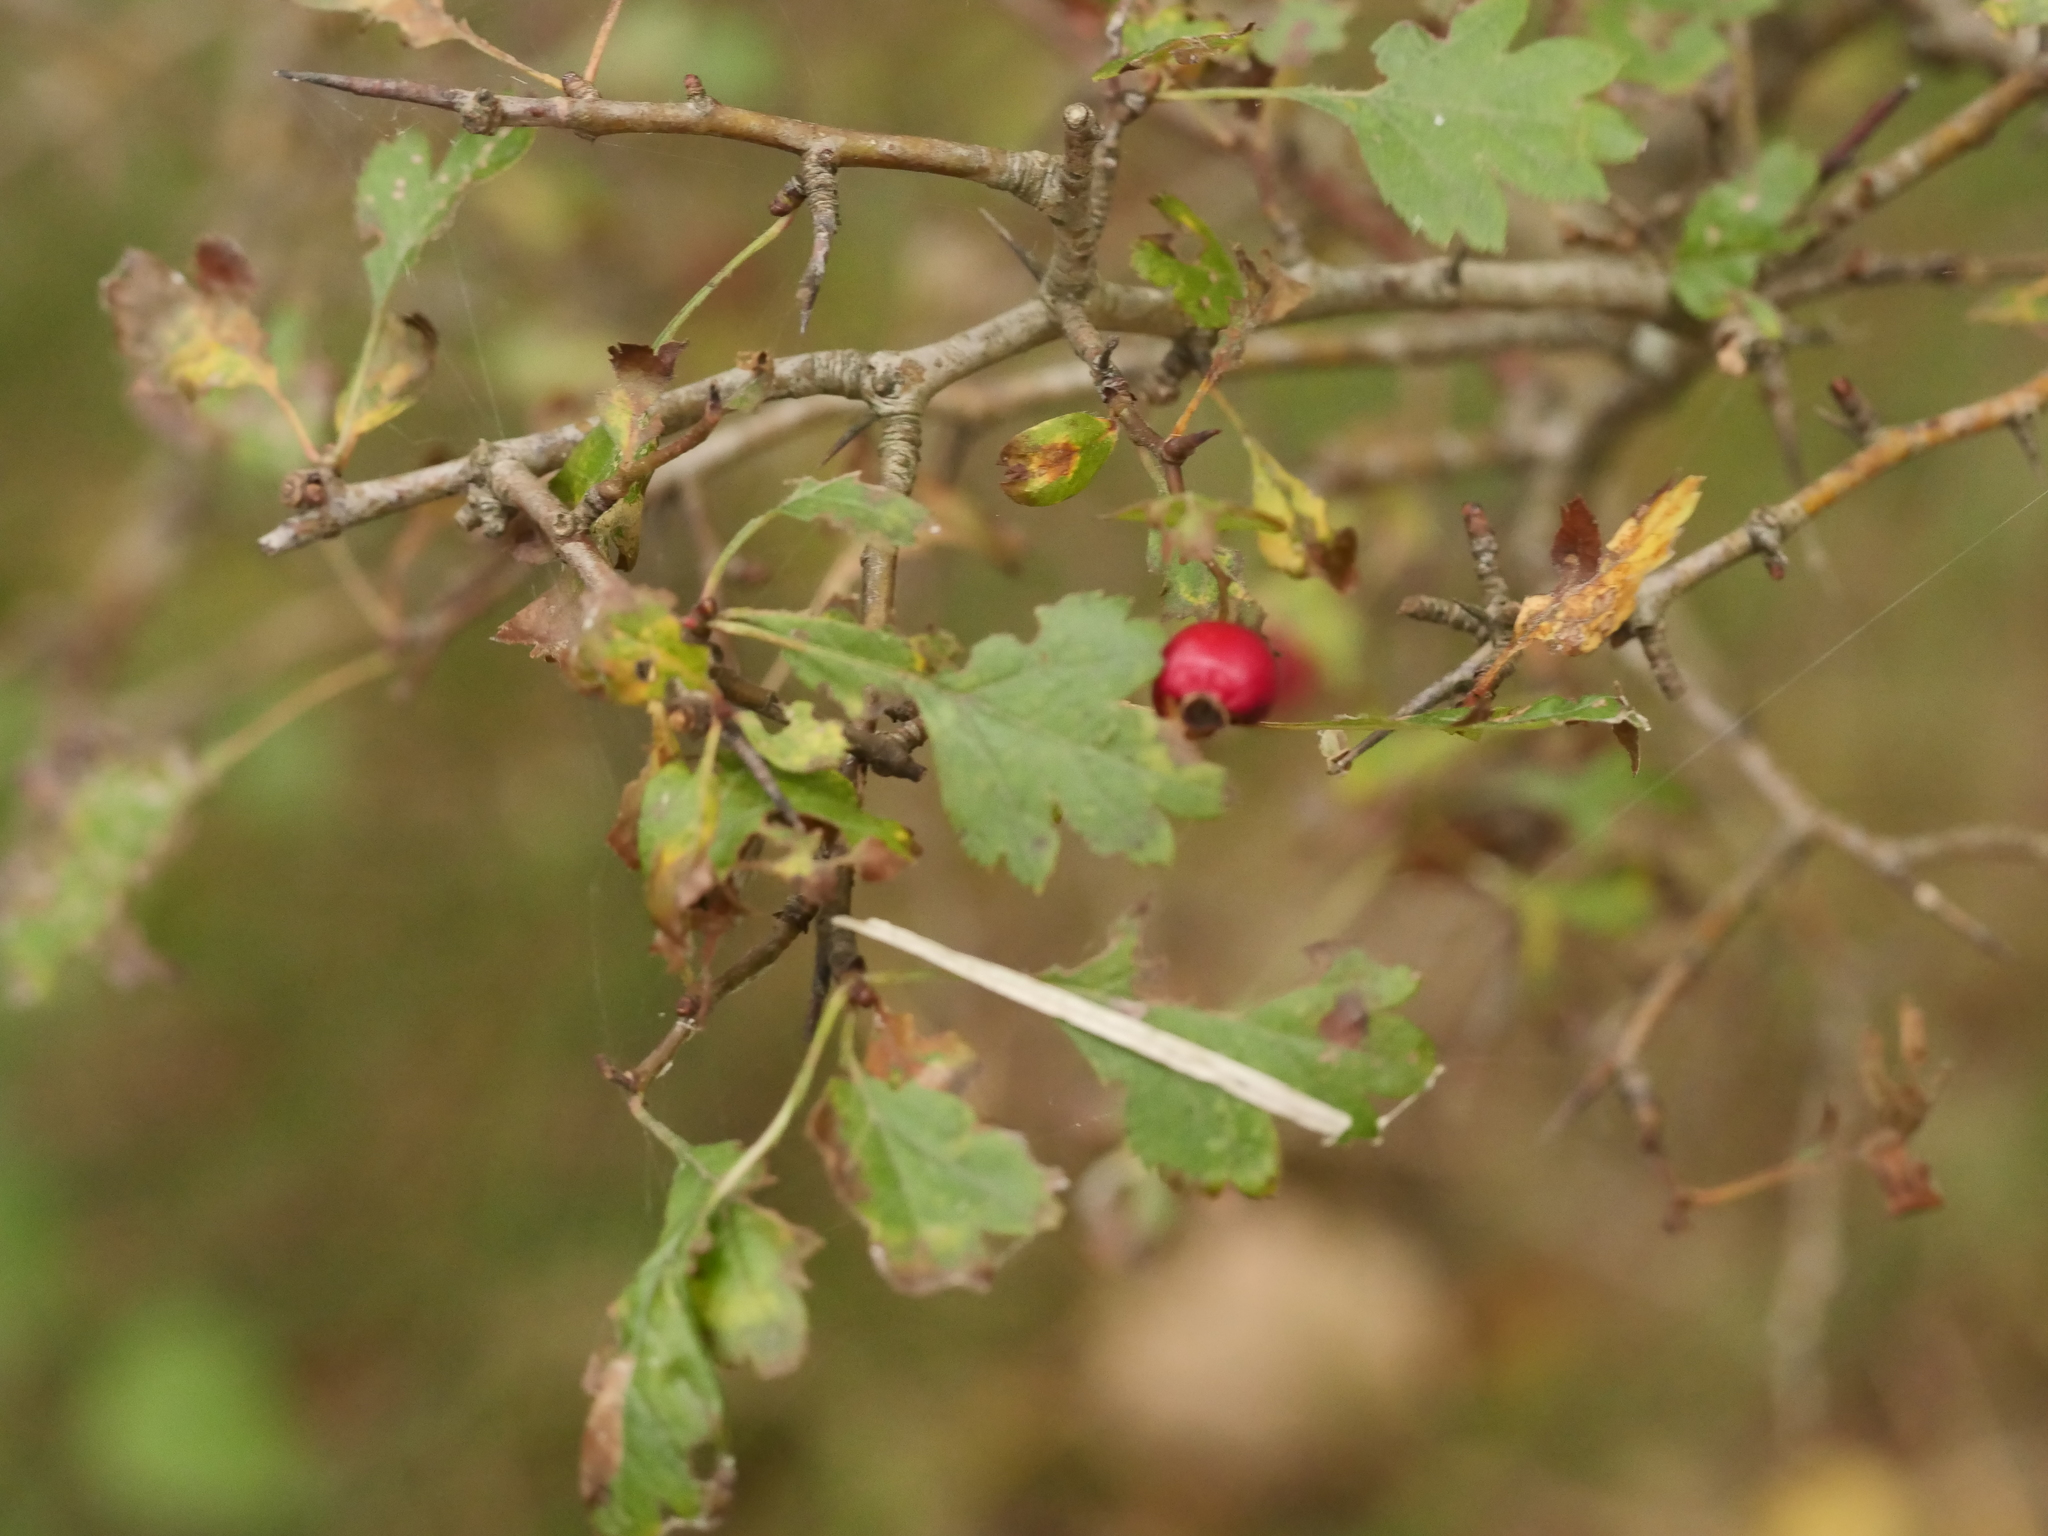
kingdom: Plantae
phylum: Tracheophyta
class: Magnoliopsida
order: Rosales
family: Rosaceae
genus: Crataegus
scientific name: Crataegus laevigata
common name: Midland hawthorn
